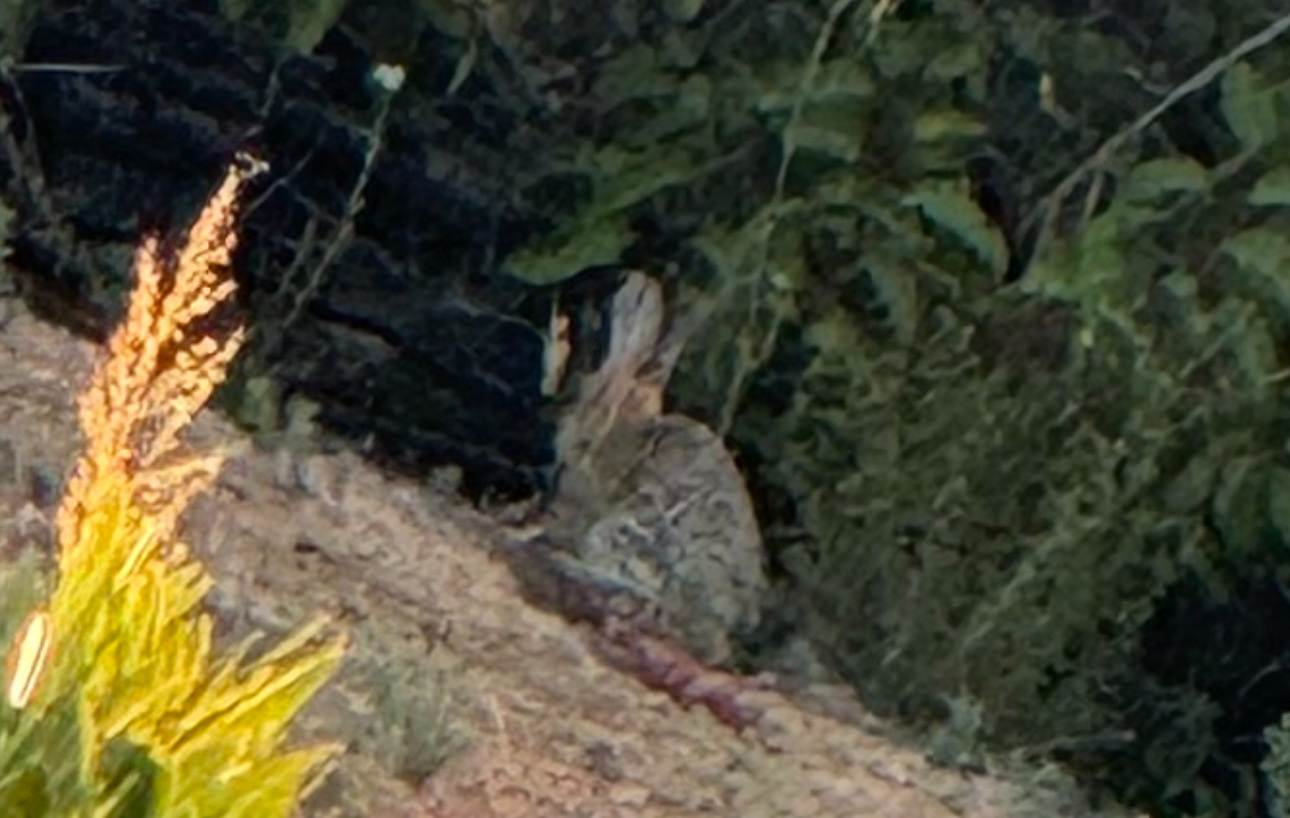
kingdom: Animalia
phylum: Chordata
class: Mammalia
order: Lagomorpha
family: Leporidae
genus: Sylvilagus
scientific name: Sylvilagus audubonii
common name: Desert cottontail
